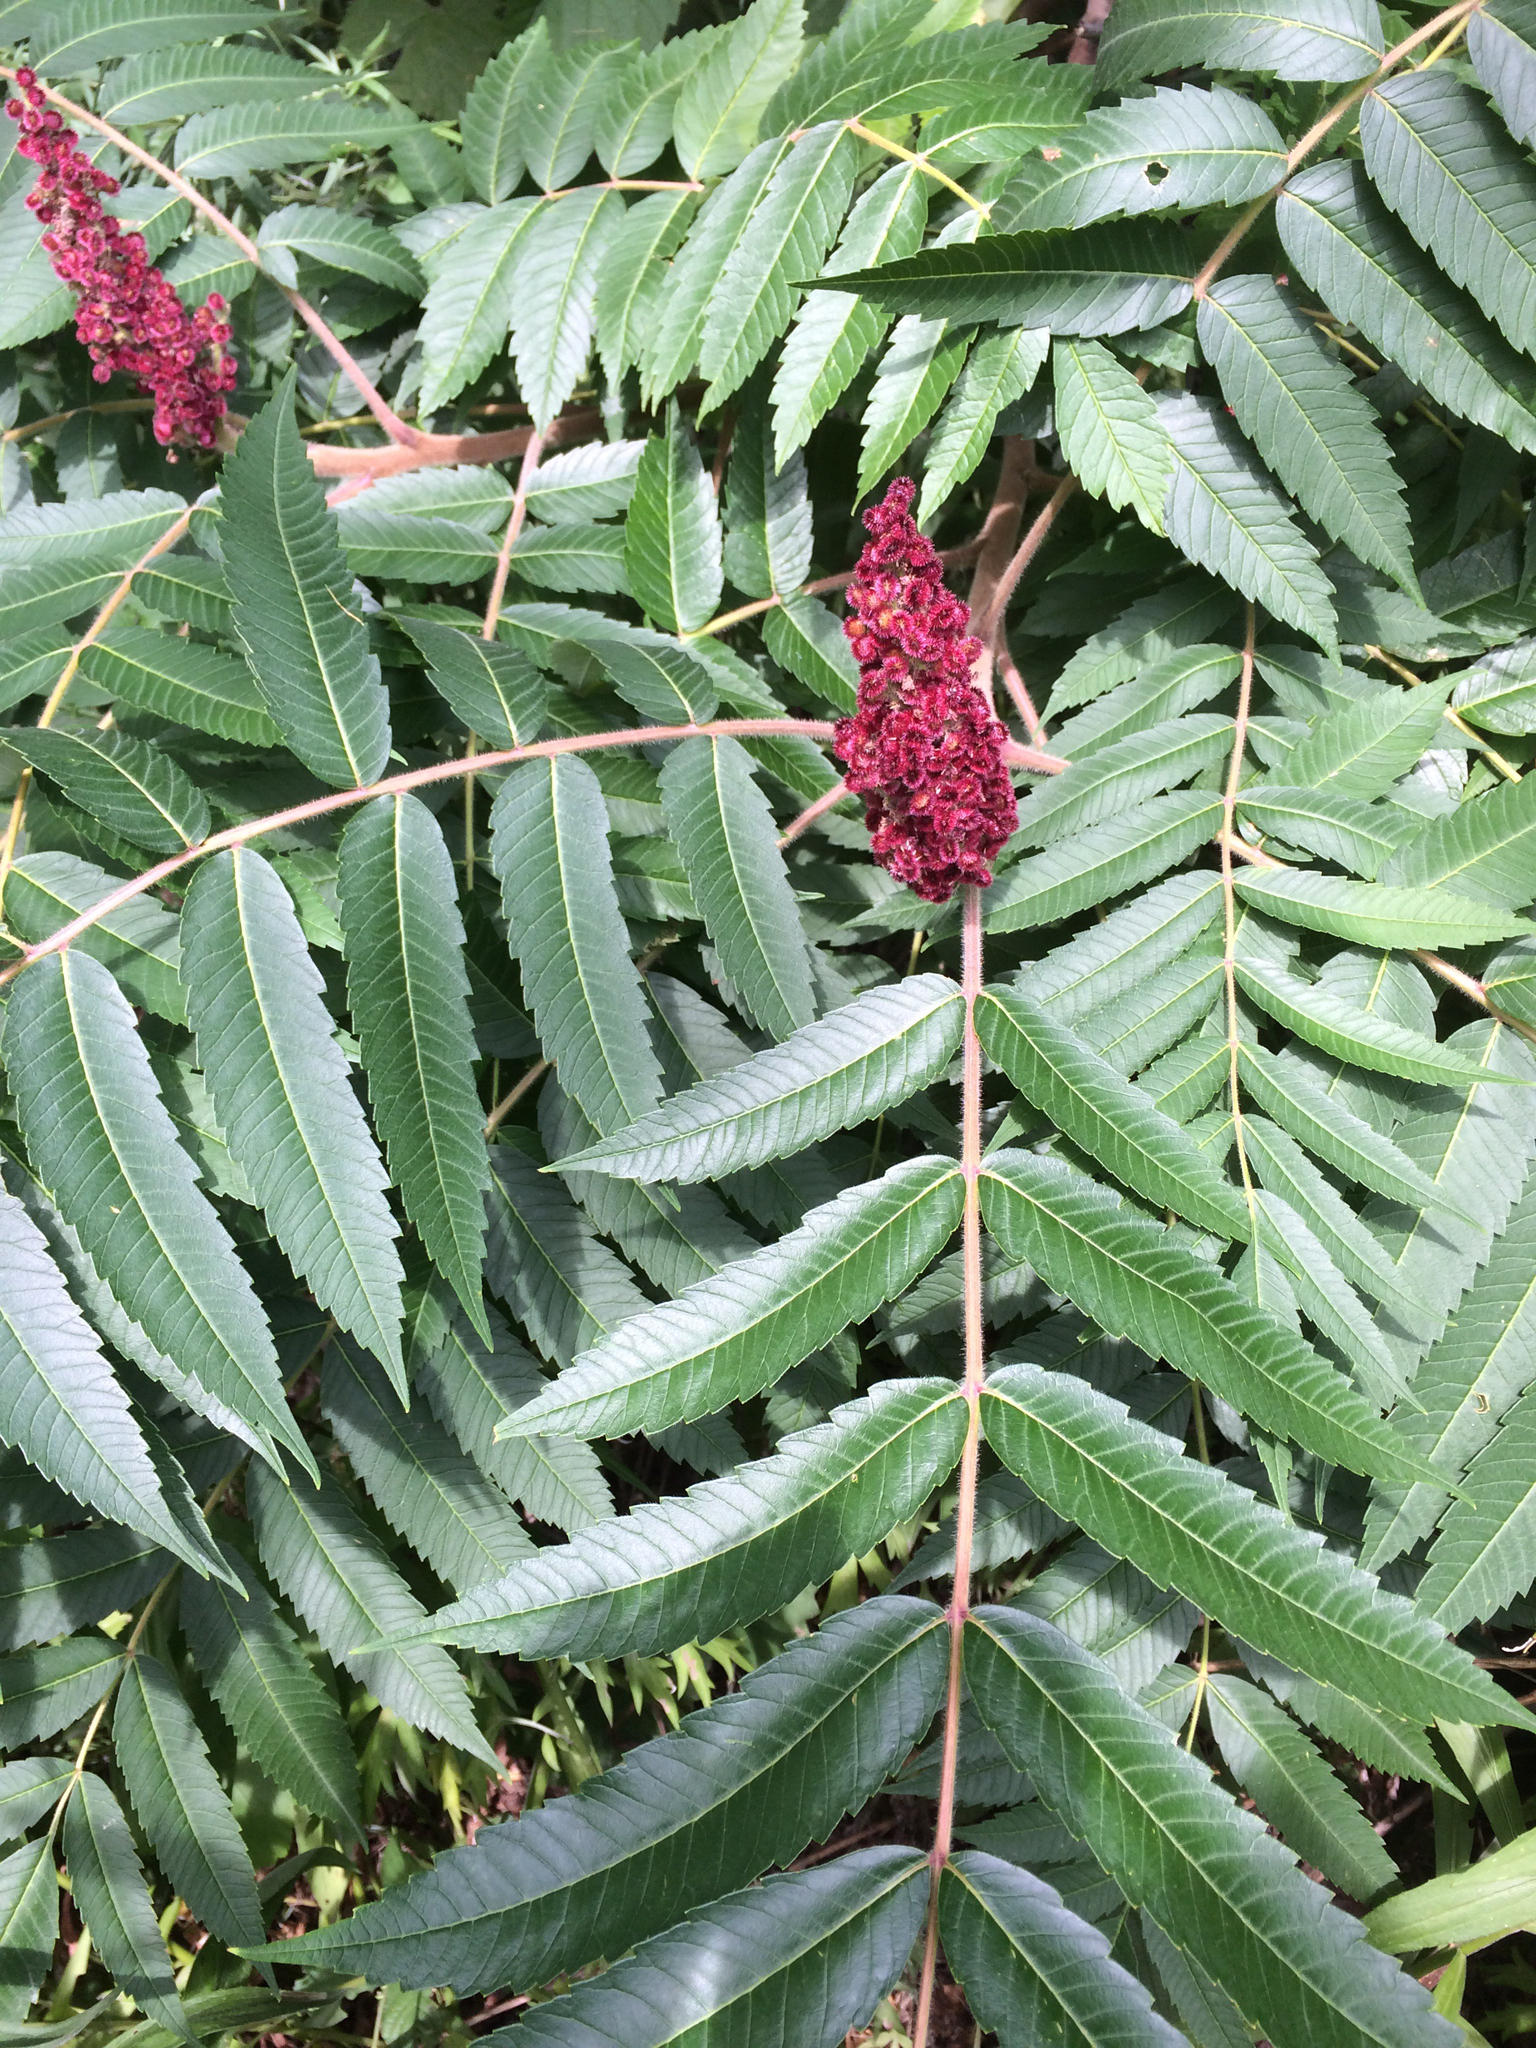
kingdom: Plantae
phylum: Tracheophyta
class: Magnoliopsida
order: Sapindales
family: Anacardiaceae
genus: Rhus
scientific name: Rhus typhina
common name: Staghorn sumac
